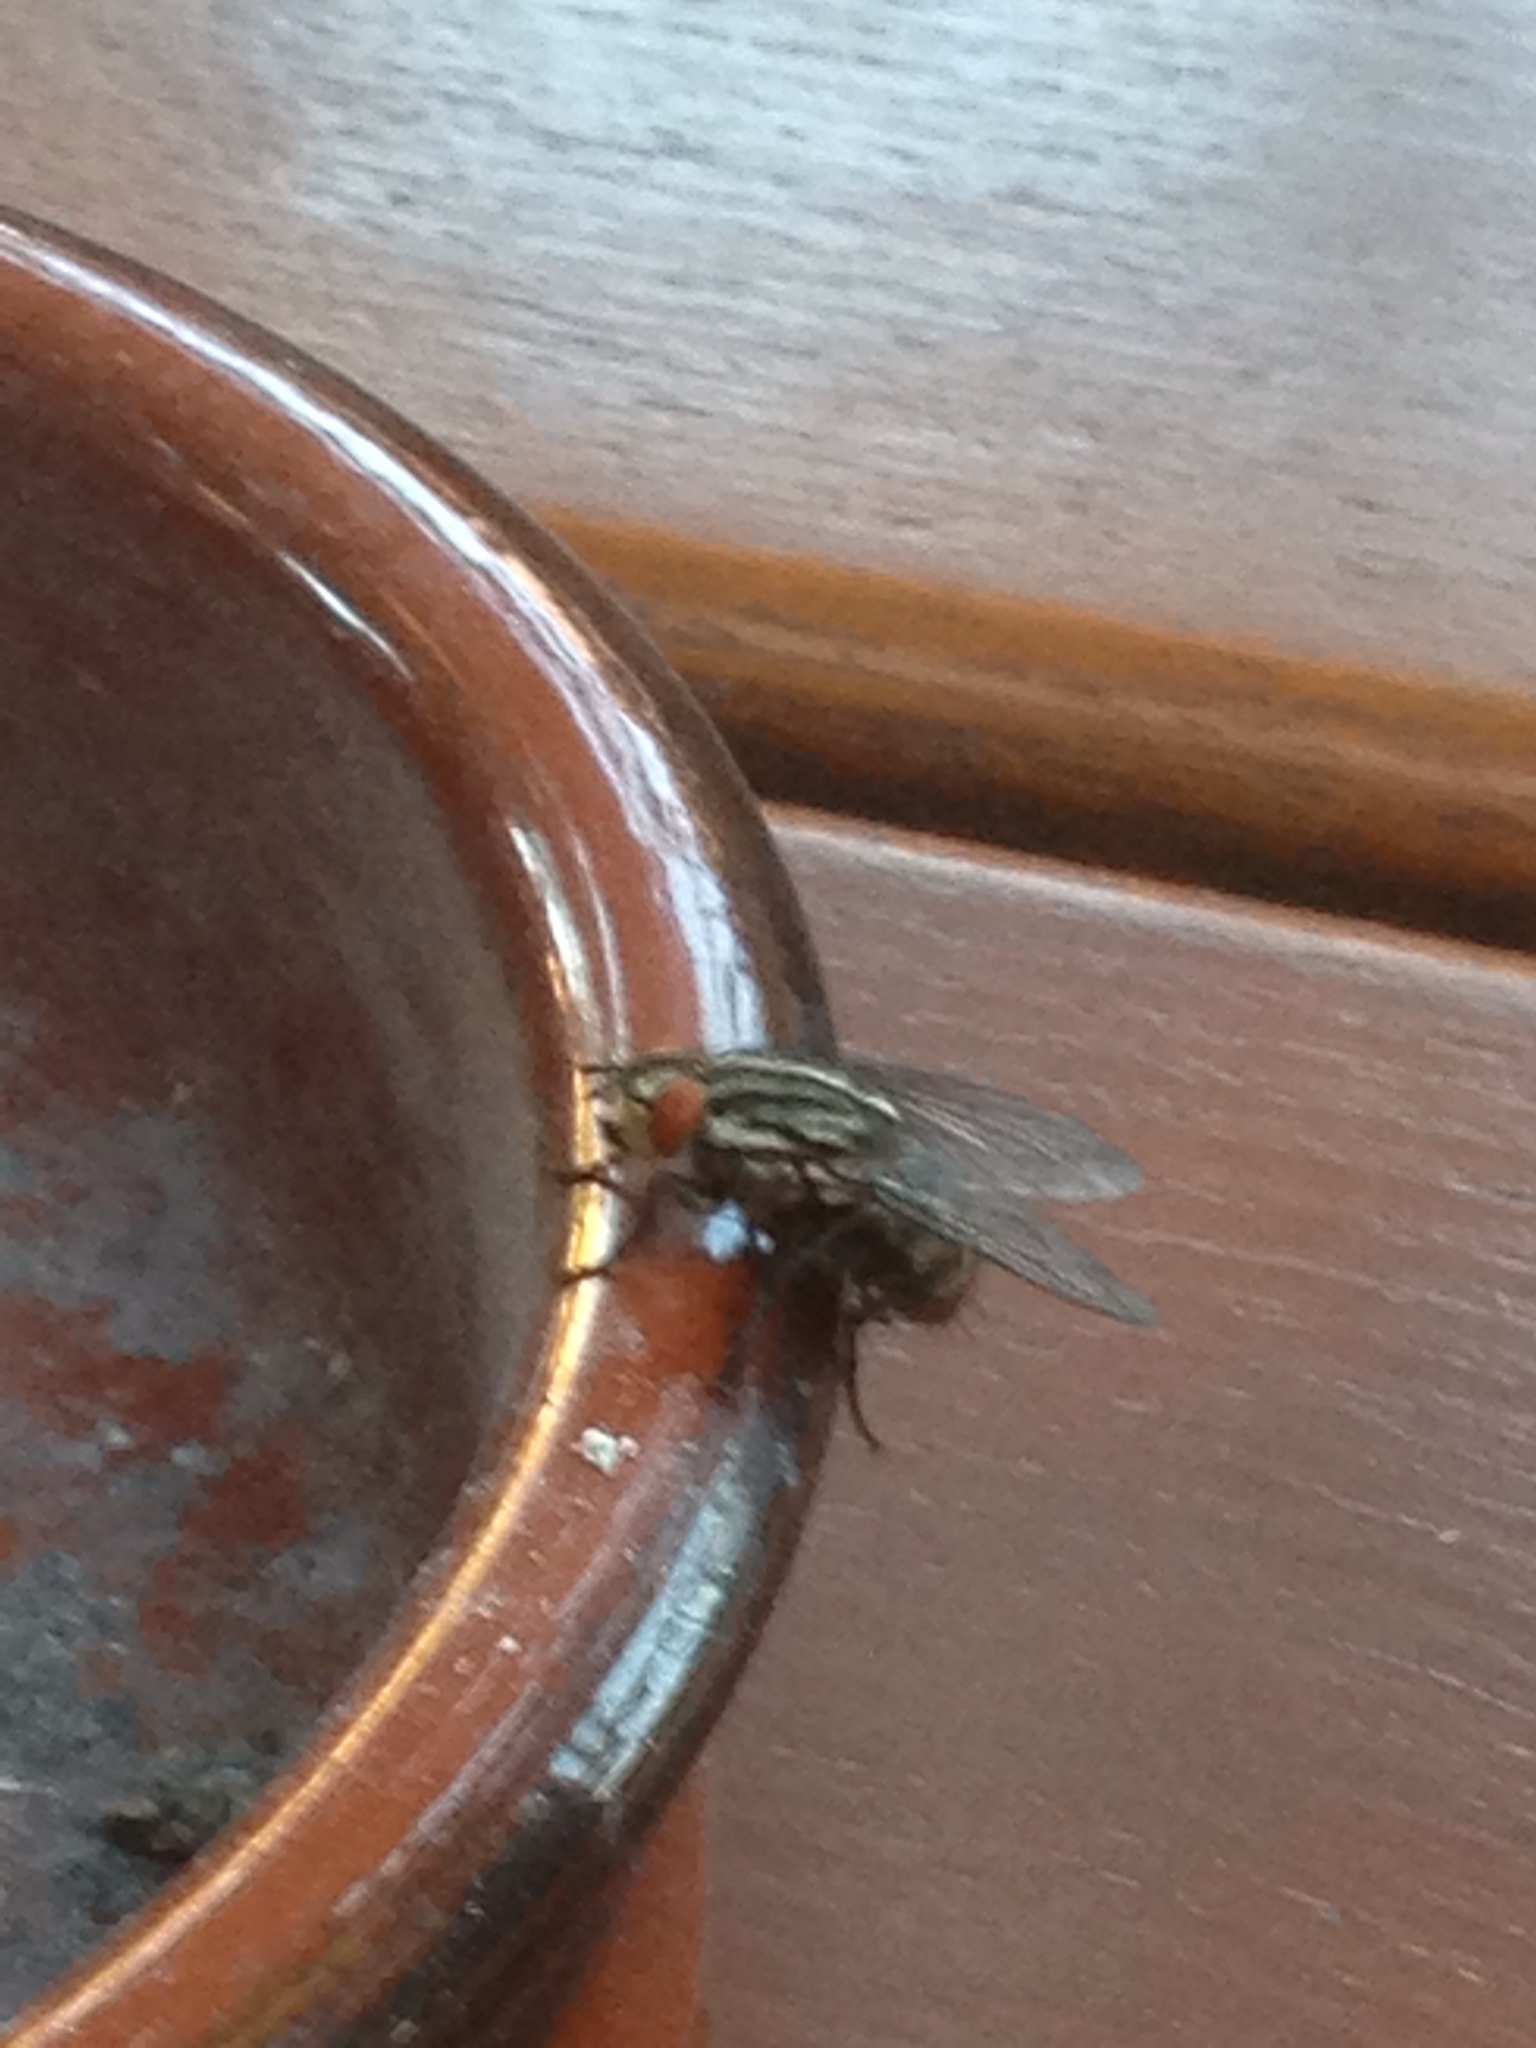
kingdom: Animalia
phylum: Arthropoda
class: Insecta
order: Diptera
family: Sarcophagidae
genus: Sarcophaga
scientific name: Sarcophaga
